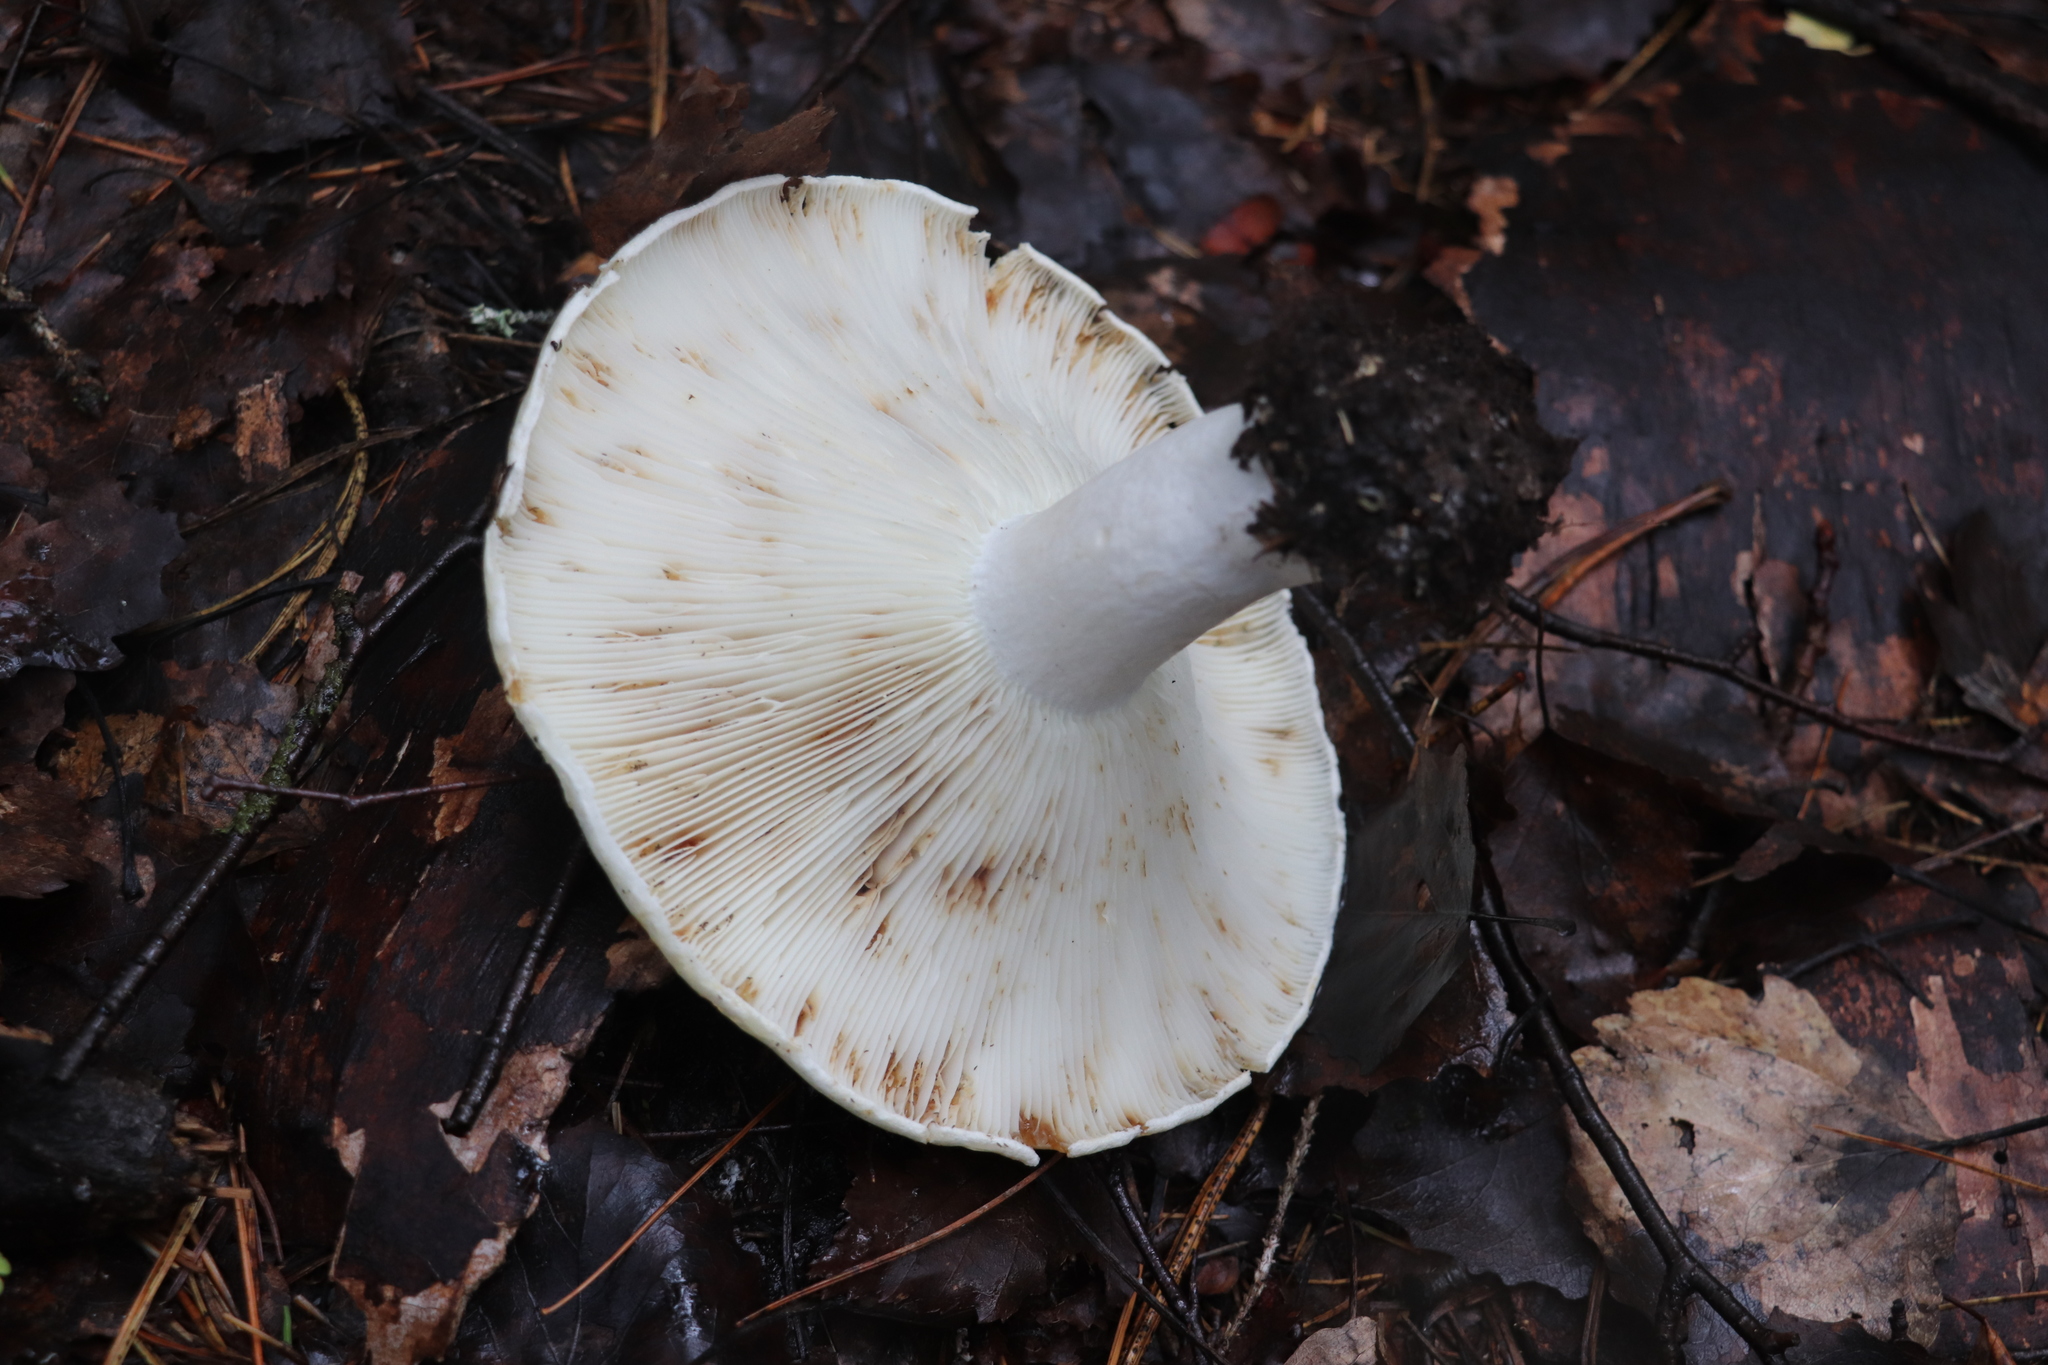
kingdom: Fungi
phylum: Basidiomycota
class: Agaricomycetes
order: Russulales
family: Russulaceae
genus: Russula
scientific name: Russula delica
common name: Milk white brittlegill
